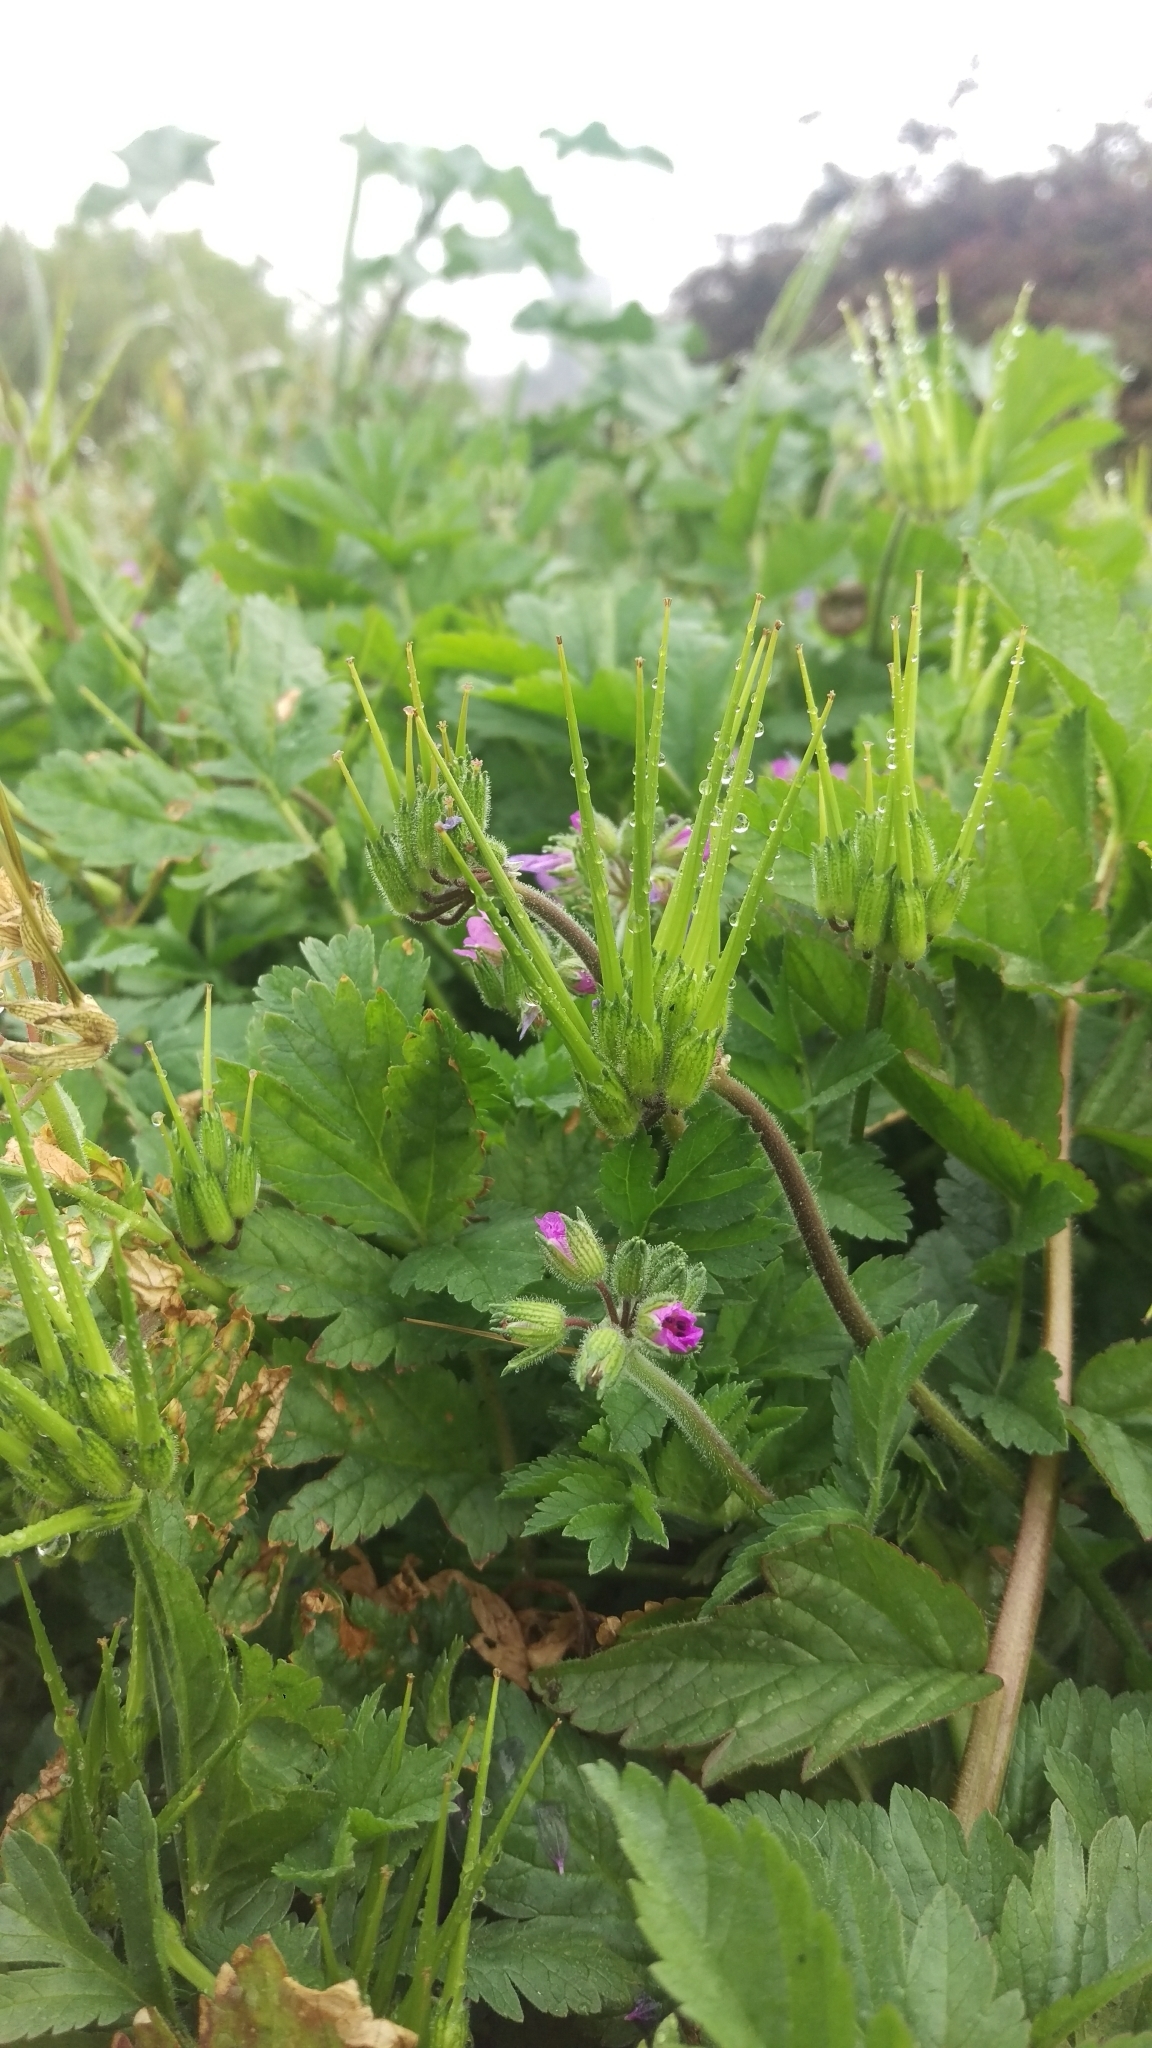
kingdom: Plantae
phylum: Tracheophyta
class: Magnoliopsida
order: Geraniales
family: Geraniaceae
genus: Erodium
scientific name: Erodium moschatum
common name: Musk stork's-bill
